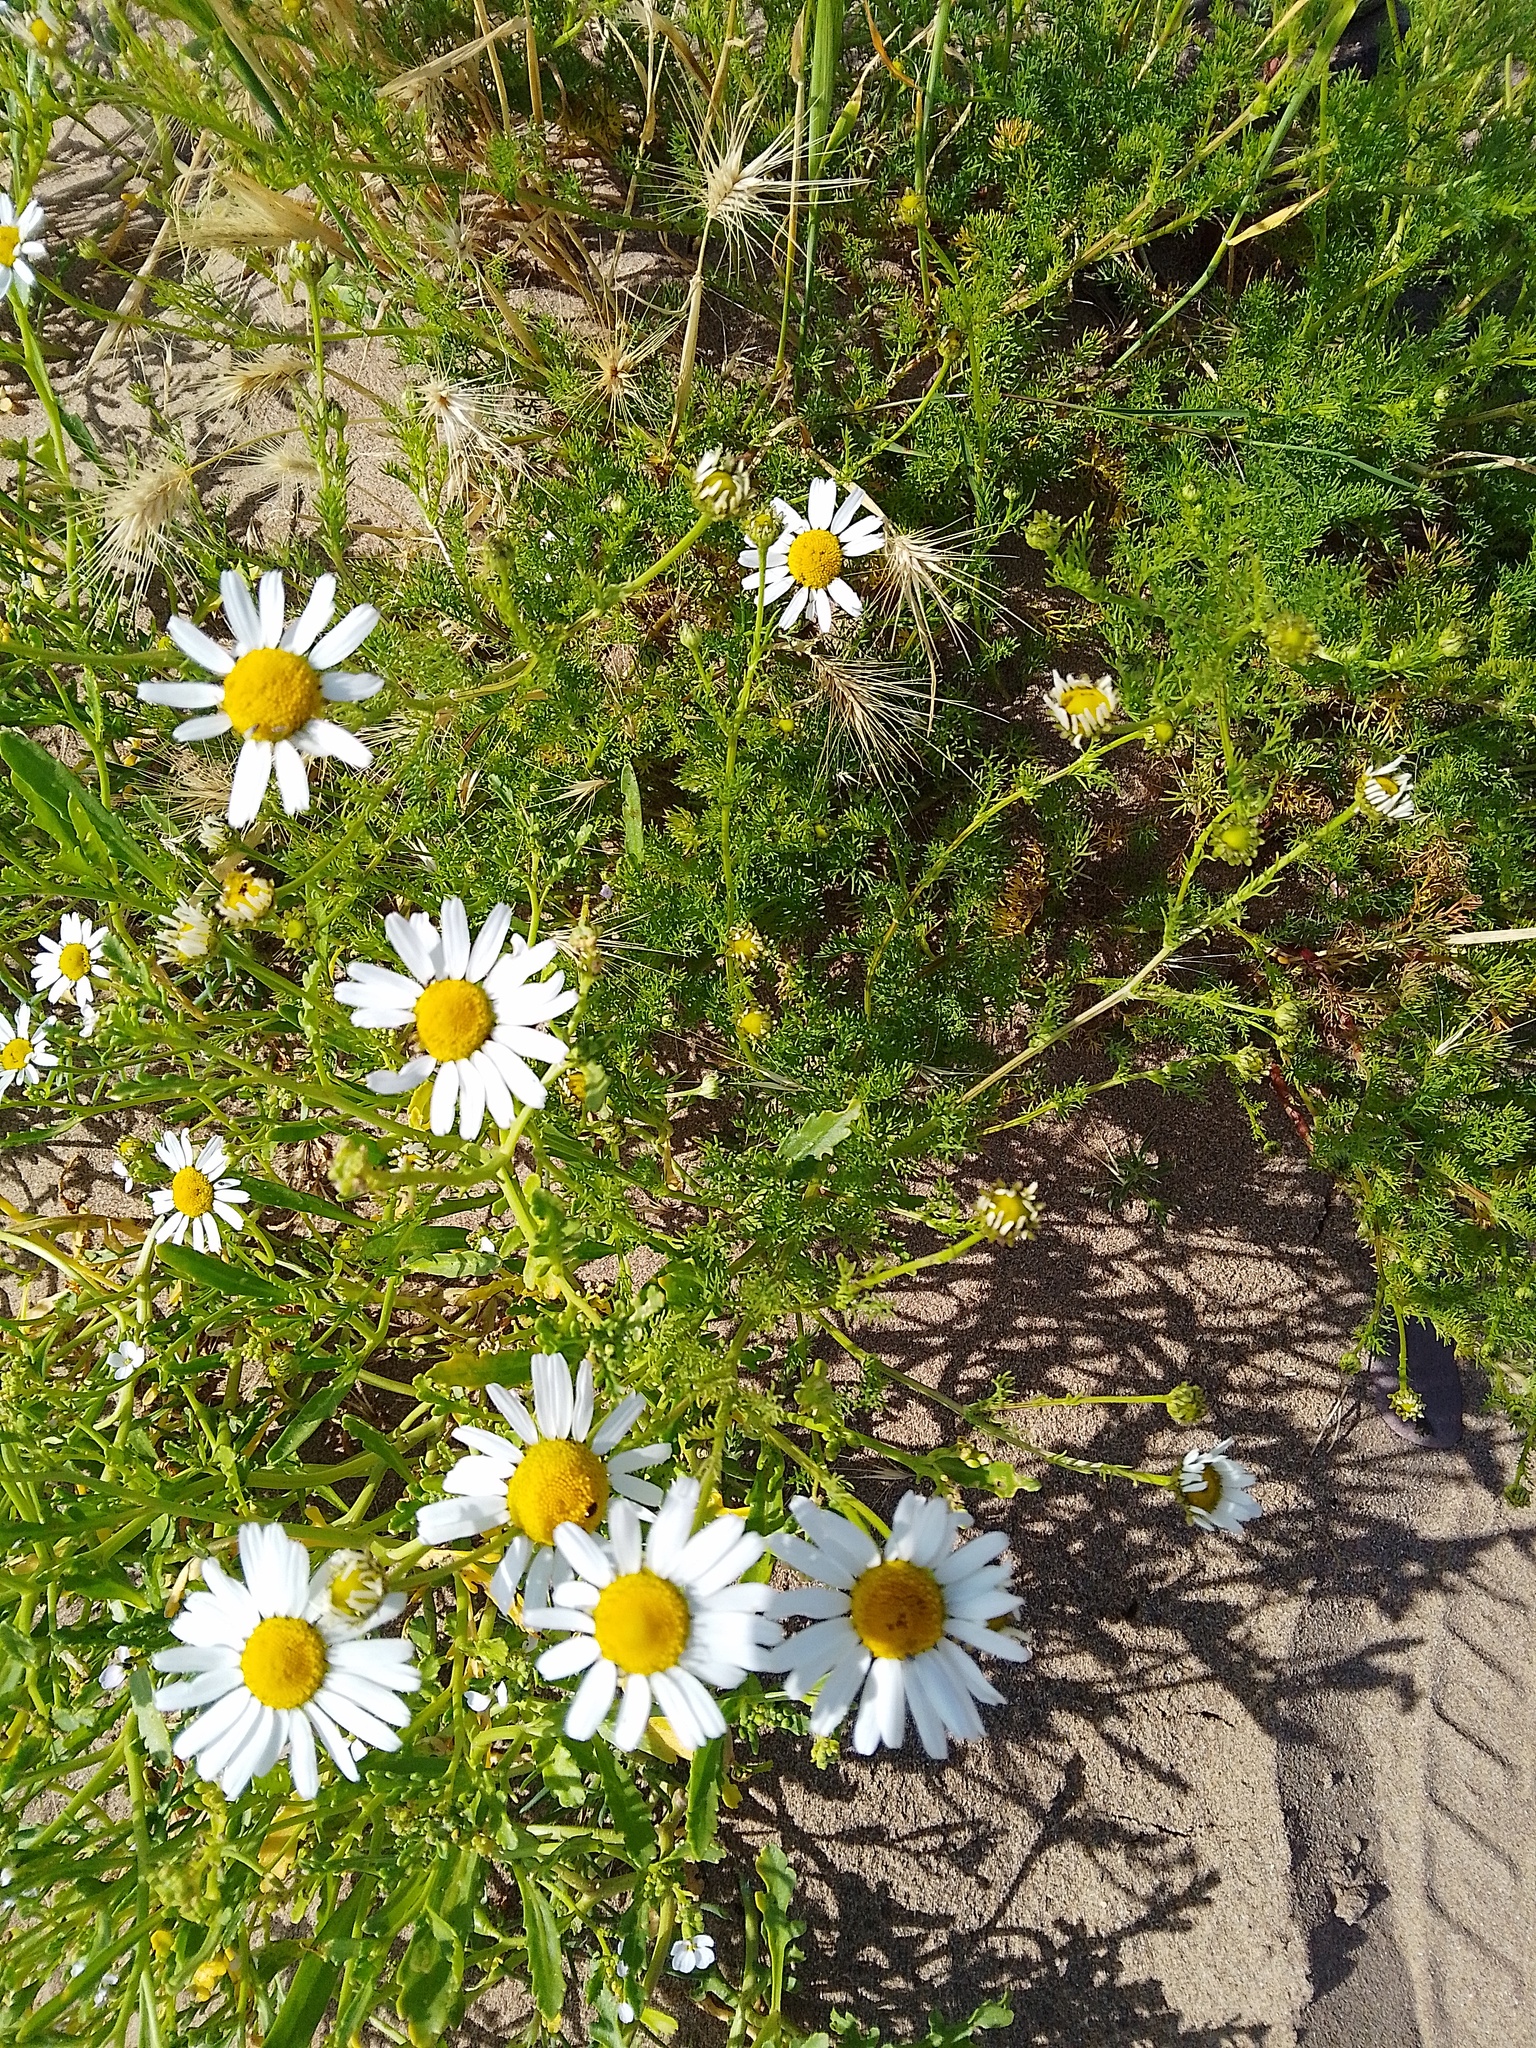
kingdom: Plantae
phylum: Tracheophyta
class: Magnoliopsida
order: Asterales
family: Asteraceae
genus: Tripleurospermum
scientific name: Tripleurospermum maritimum
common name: Sea mayweed
